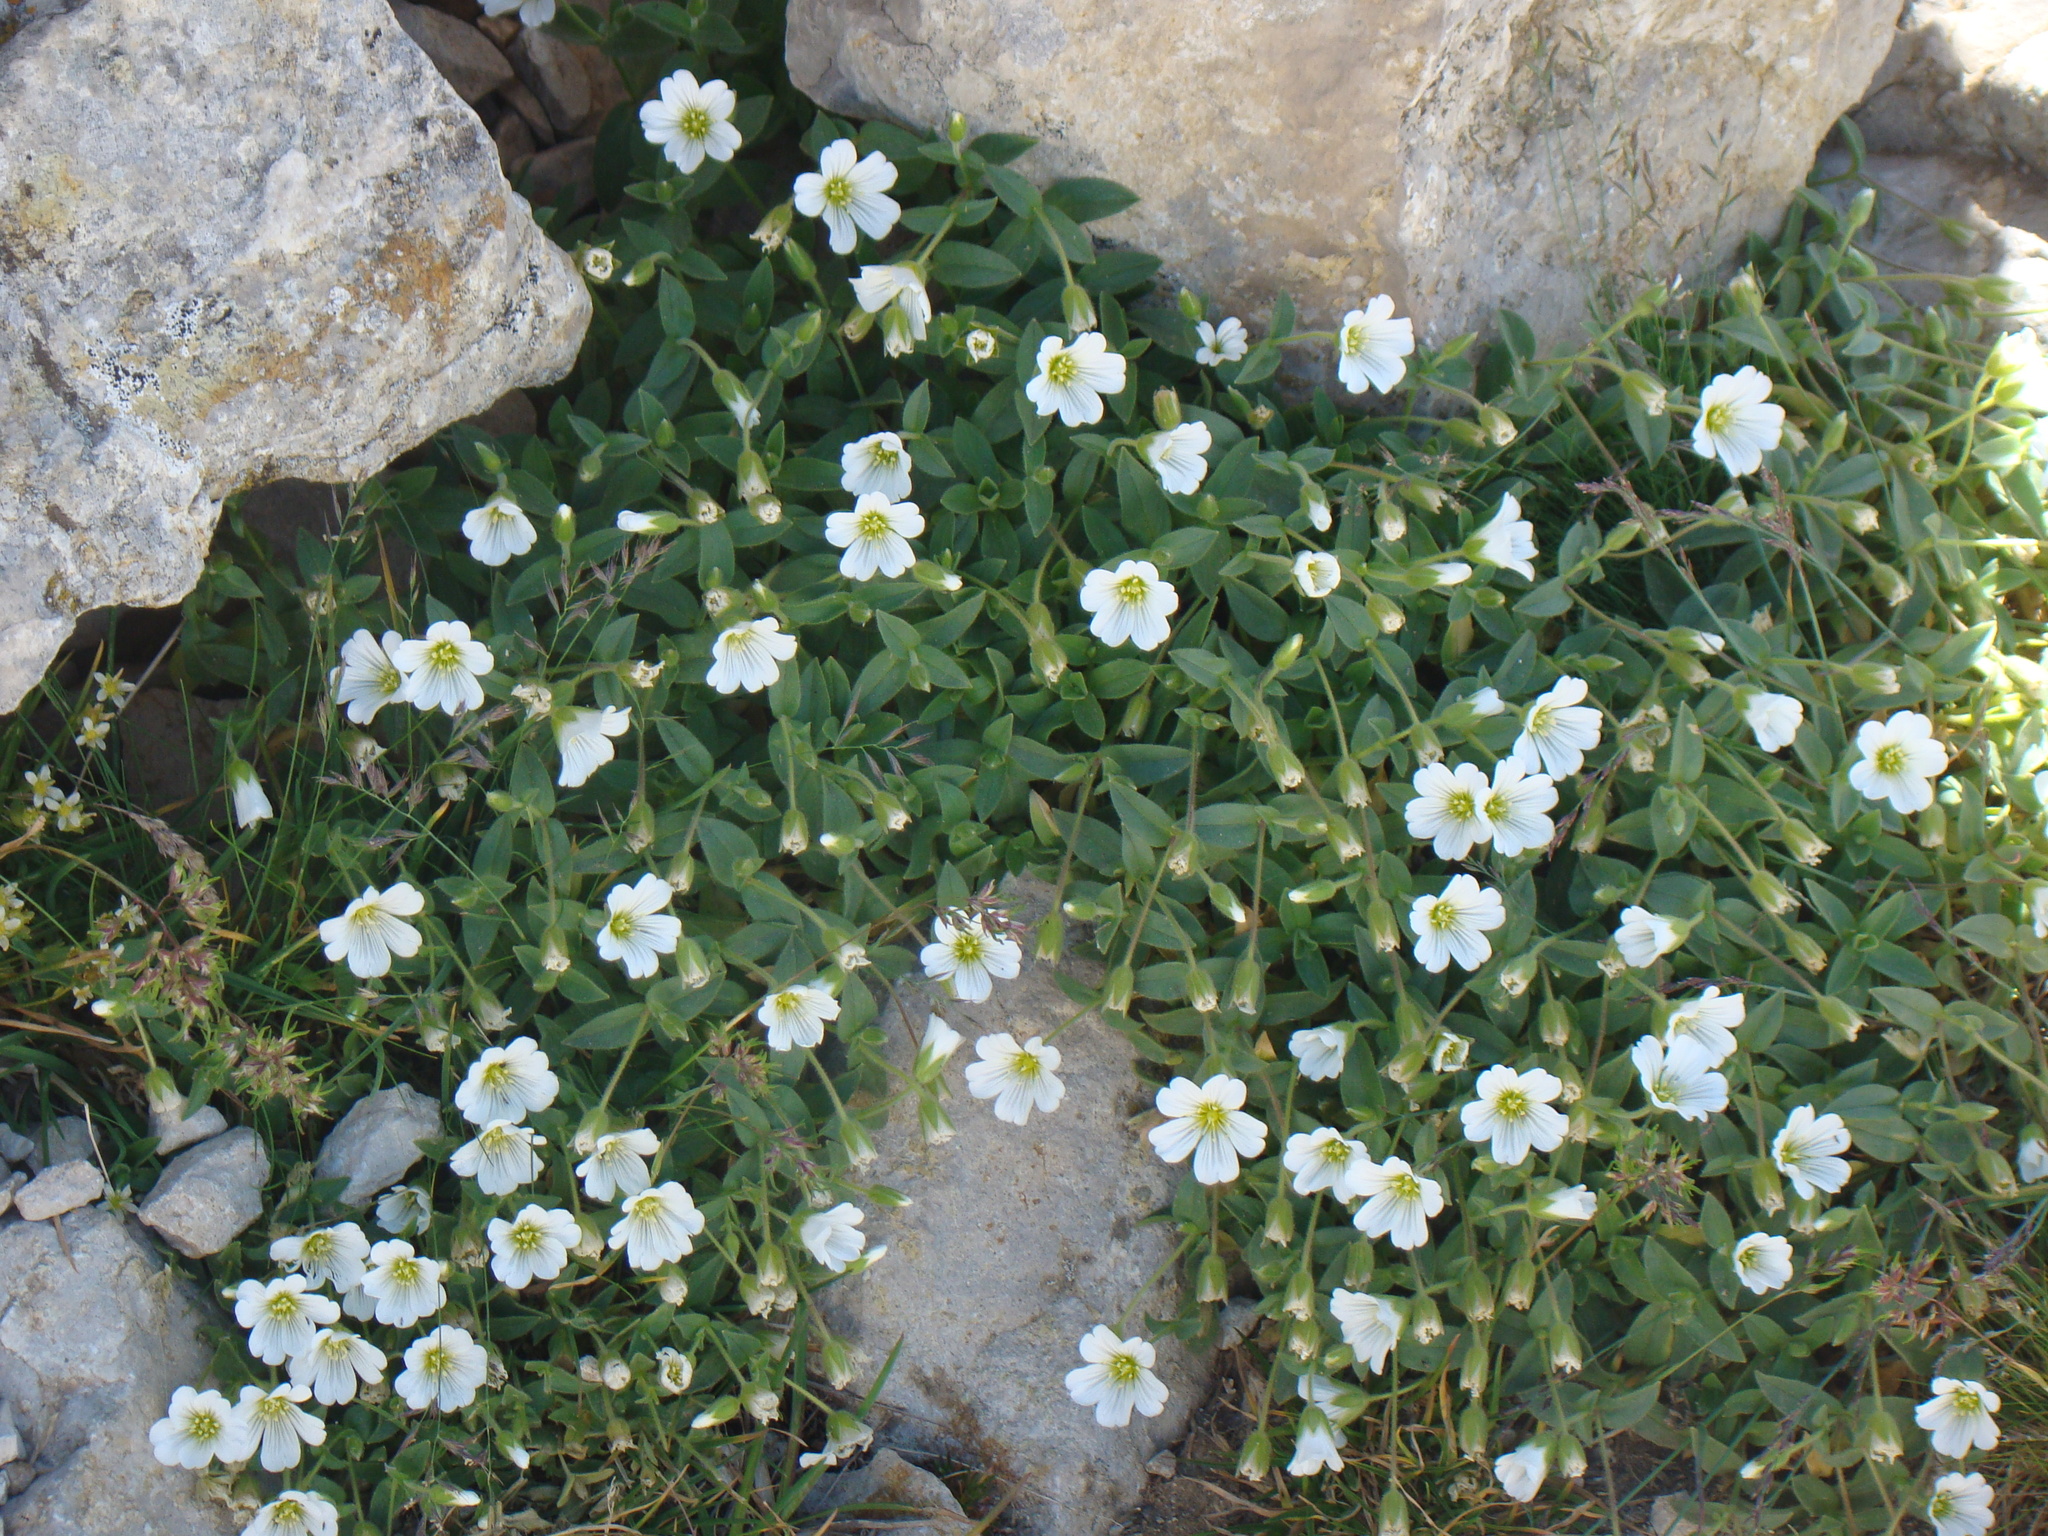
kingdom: Plantae
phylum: Tracheophyta
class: Magnoliopsida
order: Caryophyllales
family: Caryophyllaceae
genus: Cerastium
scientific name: Cerastium latifolium
